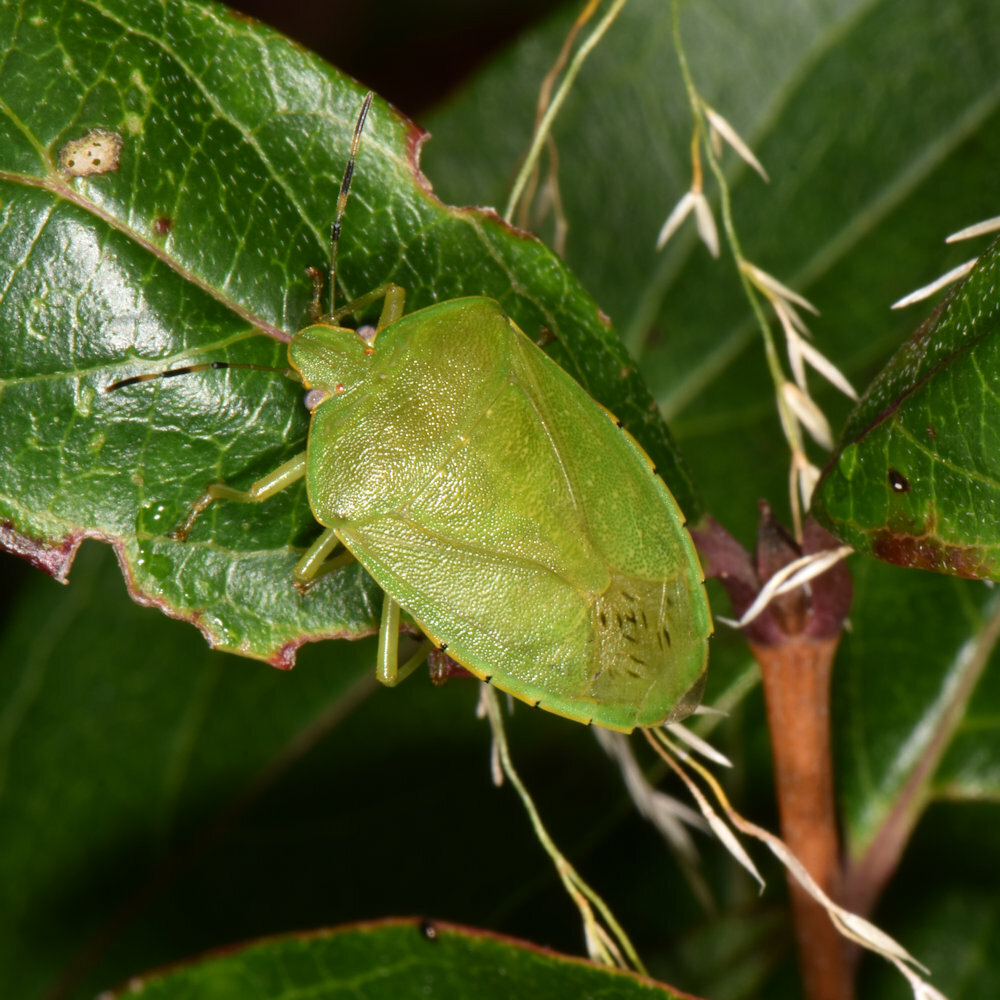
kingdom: Animalia
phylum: Arthropoda
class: Insecta
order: Hemiptera
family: Pentatomidae
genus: Chinavia
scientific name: Chinavia hilaris
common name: Green stink bug
